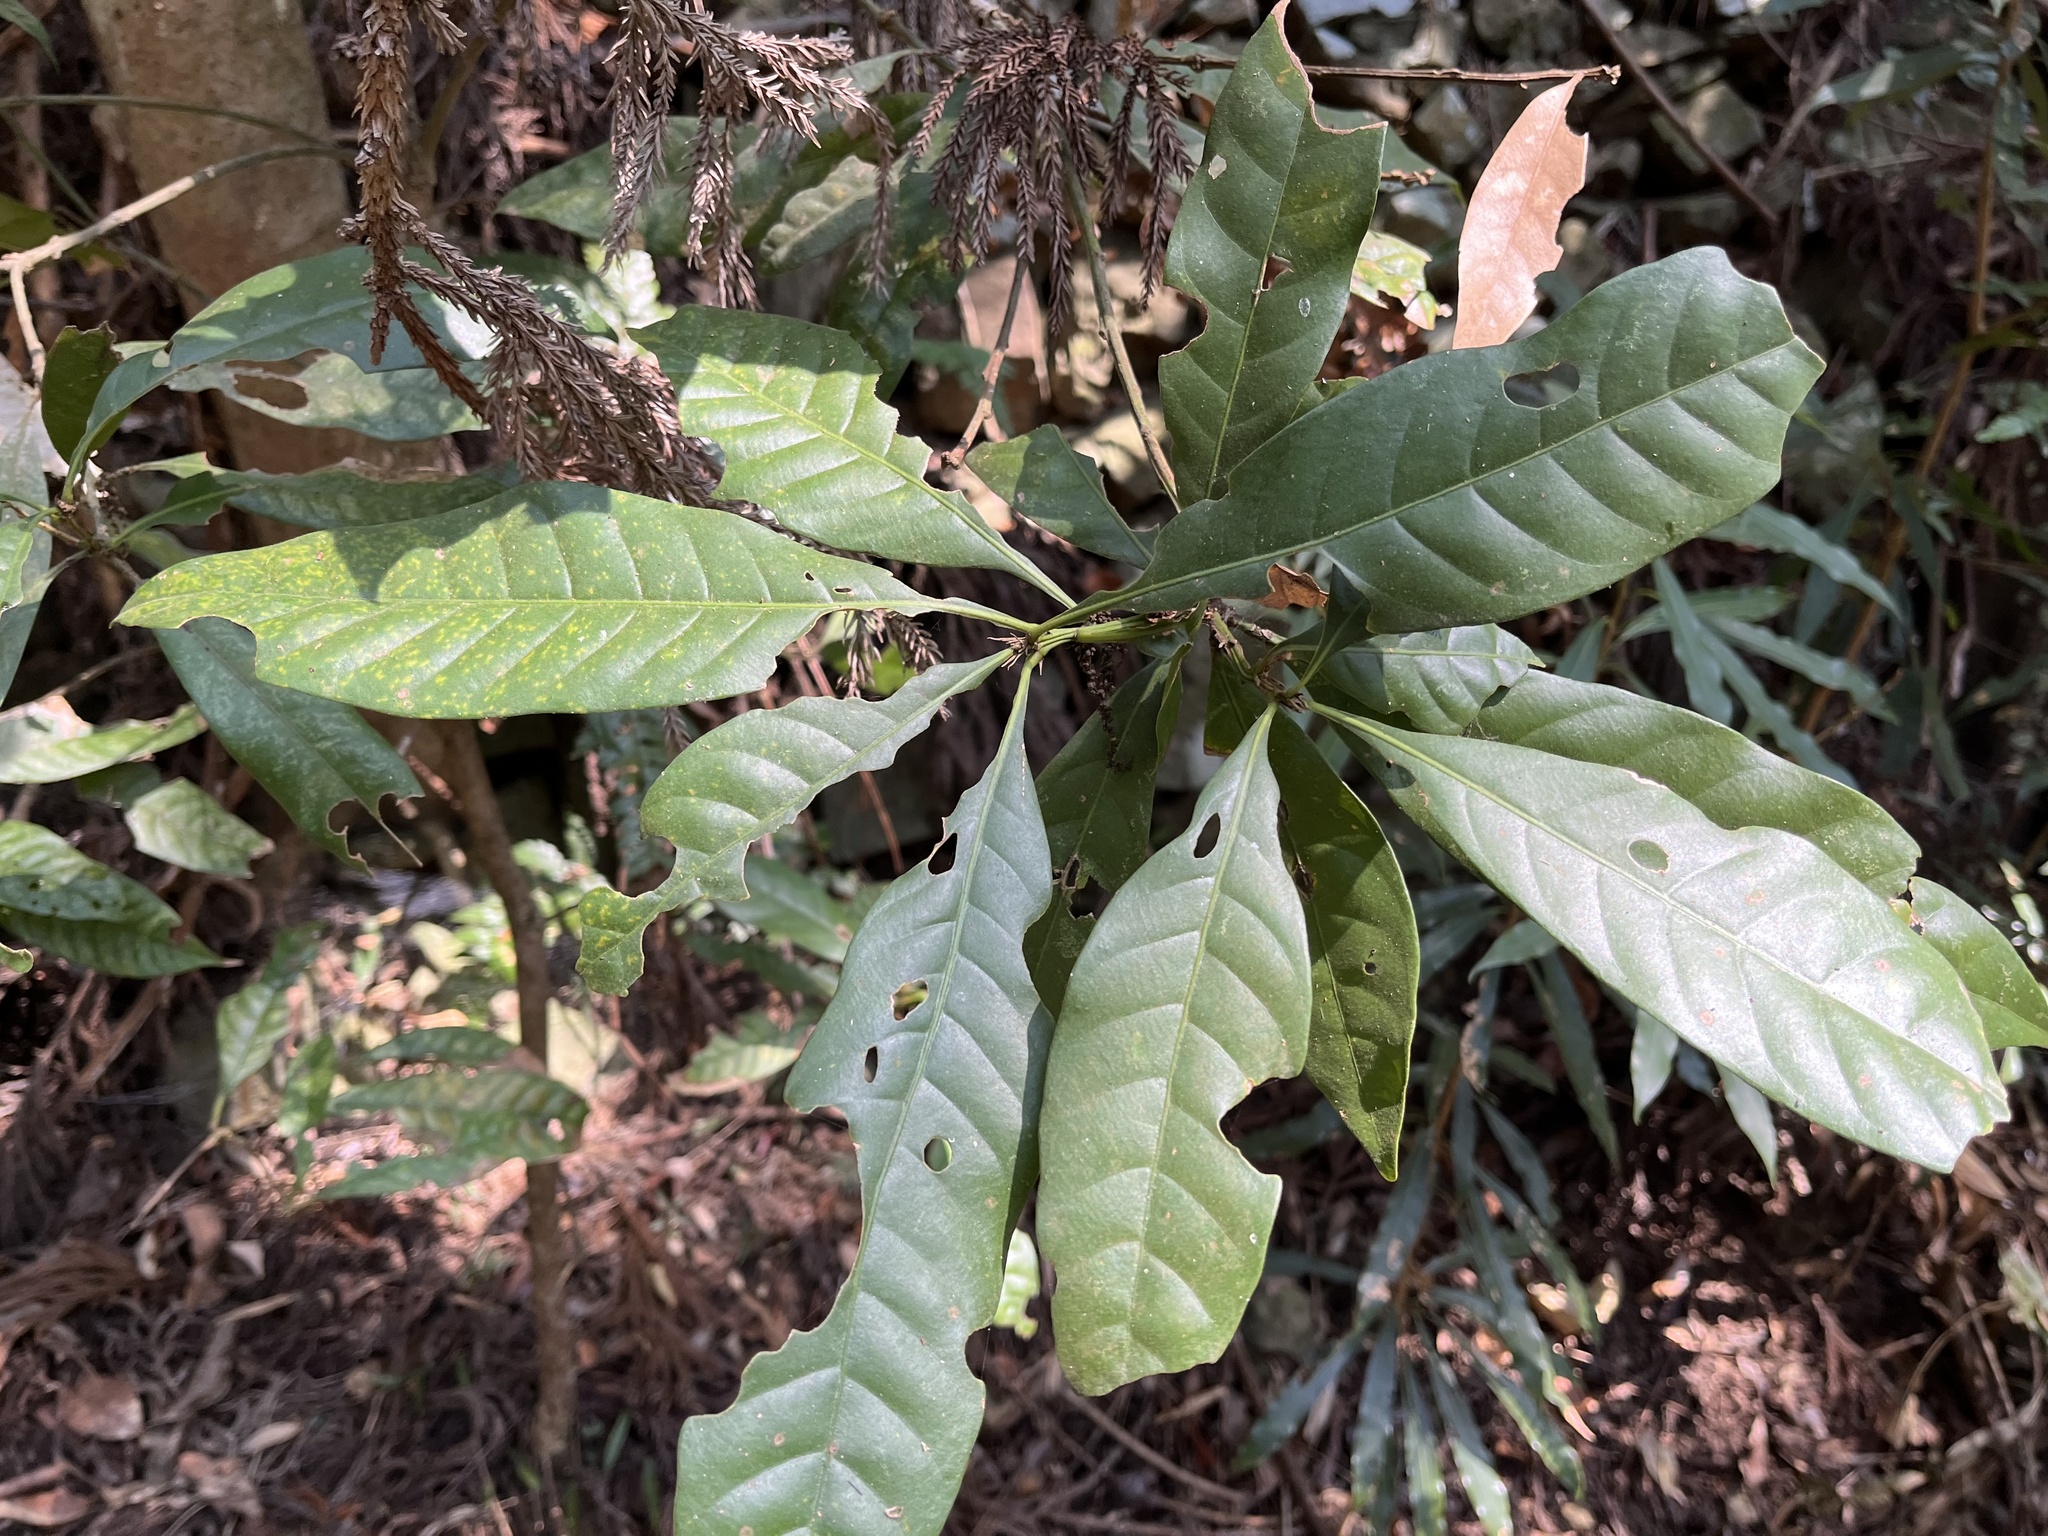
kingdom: Plantae
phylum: Tracheophyta
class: Magnoliopsida
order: Fagales
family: Fagaceae
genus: Lithocarpus
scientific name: Lithocarpus brevicaudatus
